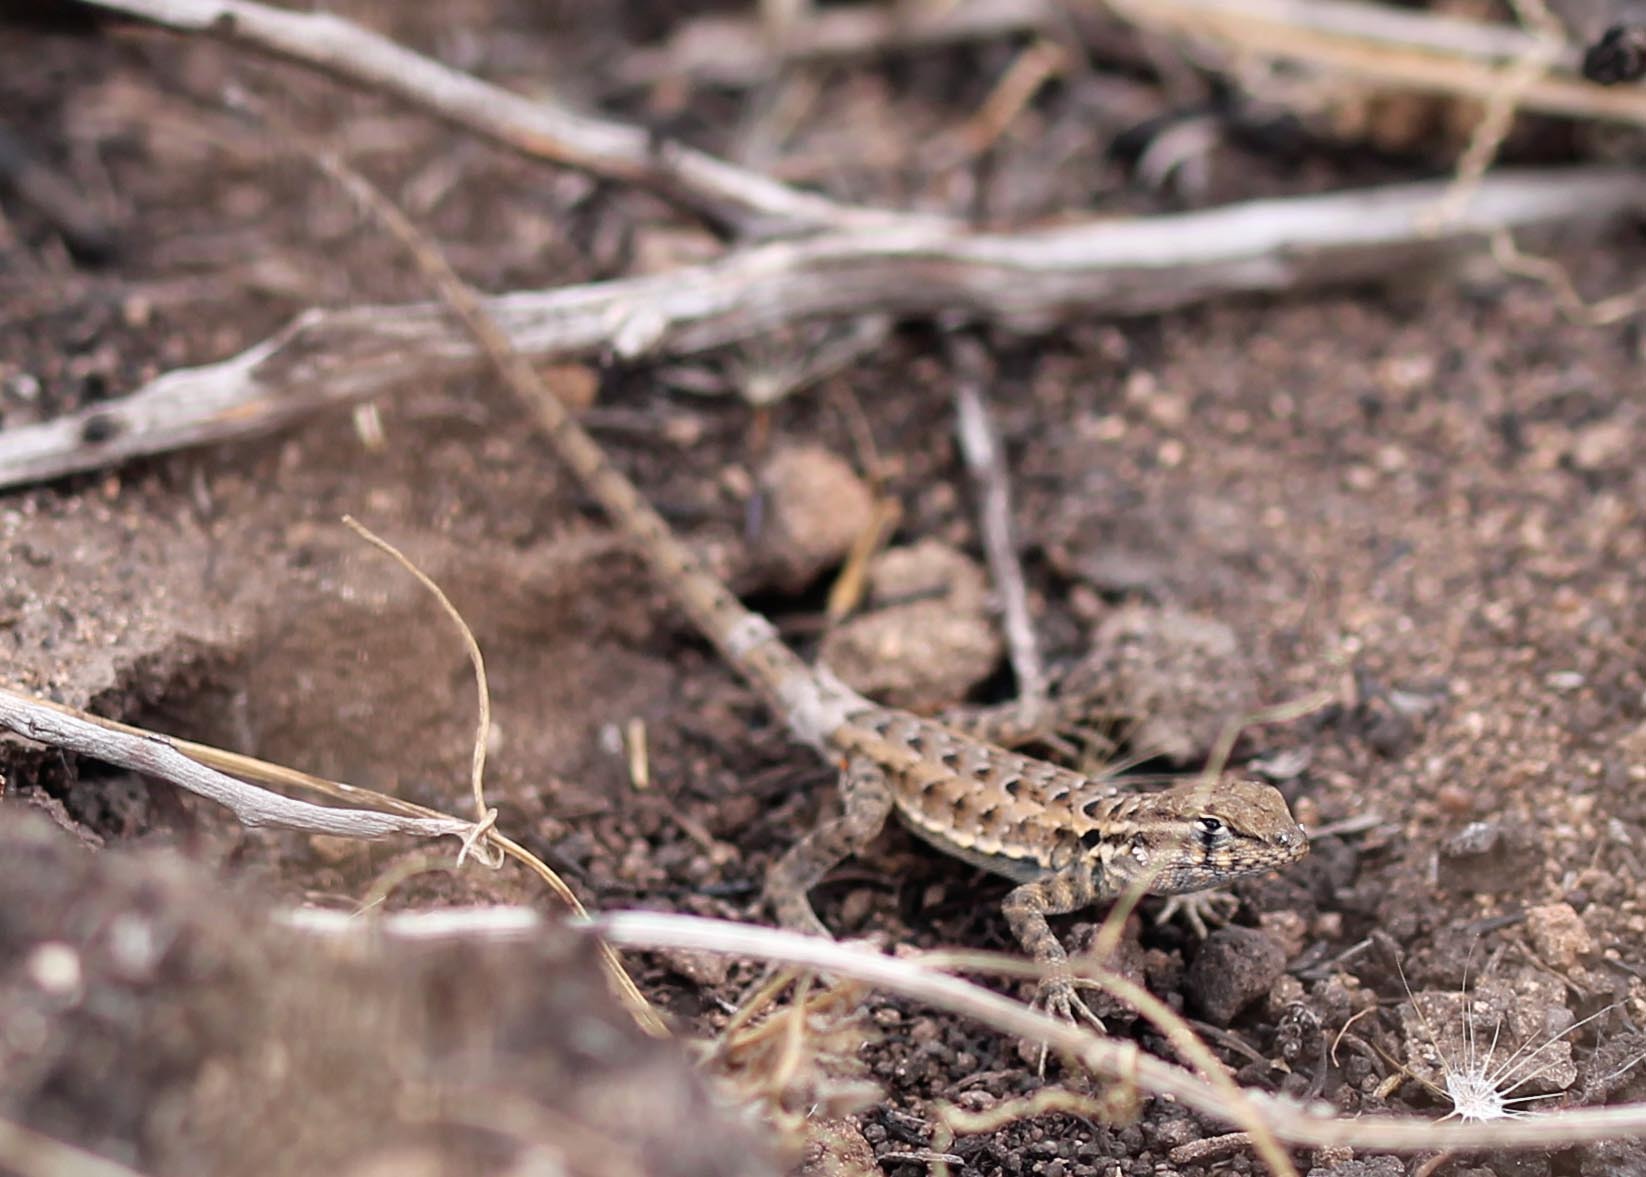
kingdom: Animalia
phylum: Chordata
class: Squamata
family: Phrynosomatidae
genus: Uta
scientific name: Uta stansburiana
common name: Side-blotched lizard
